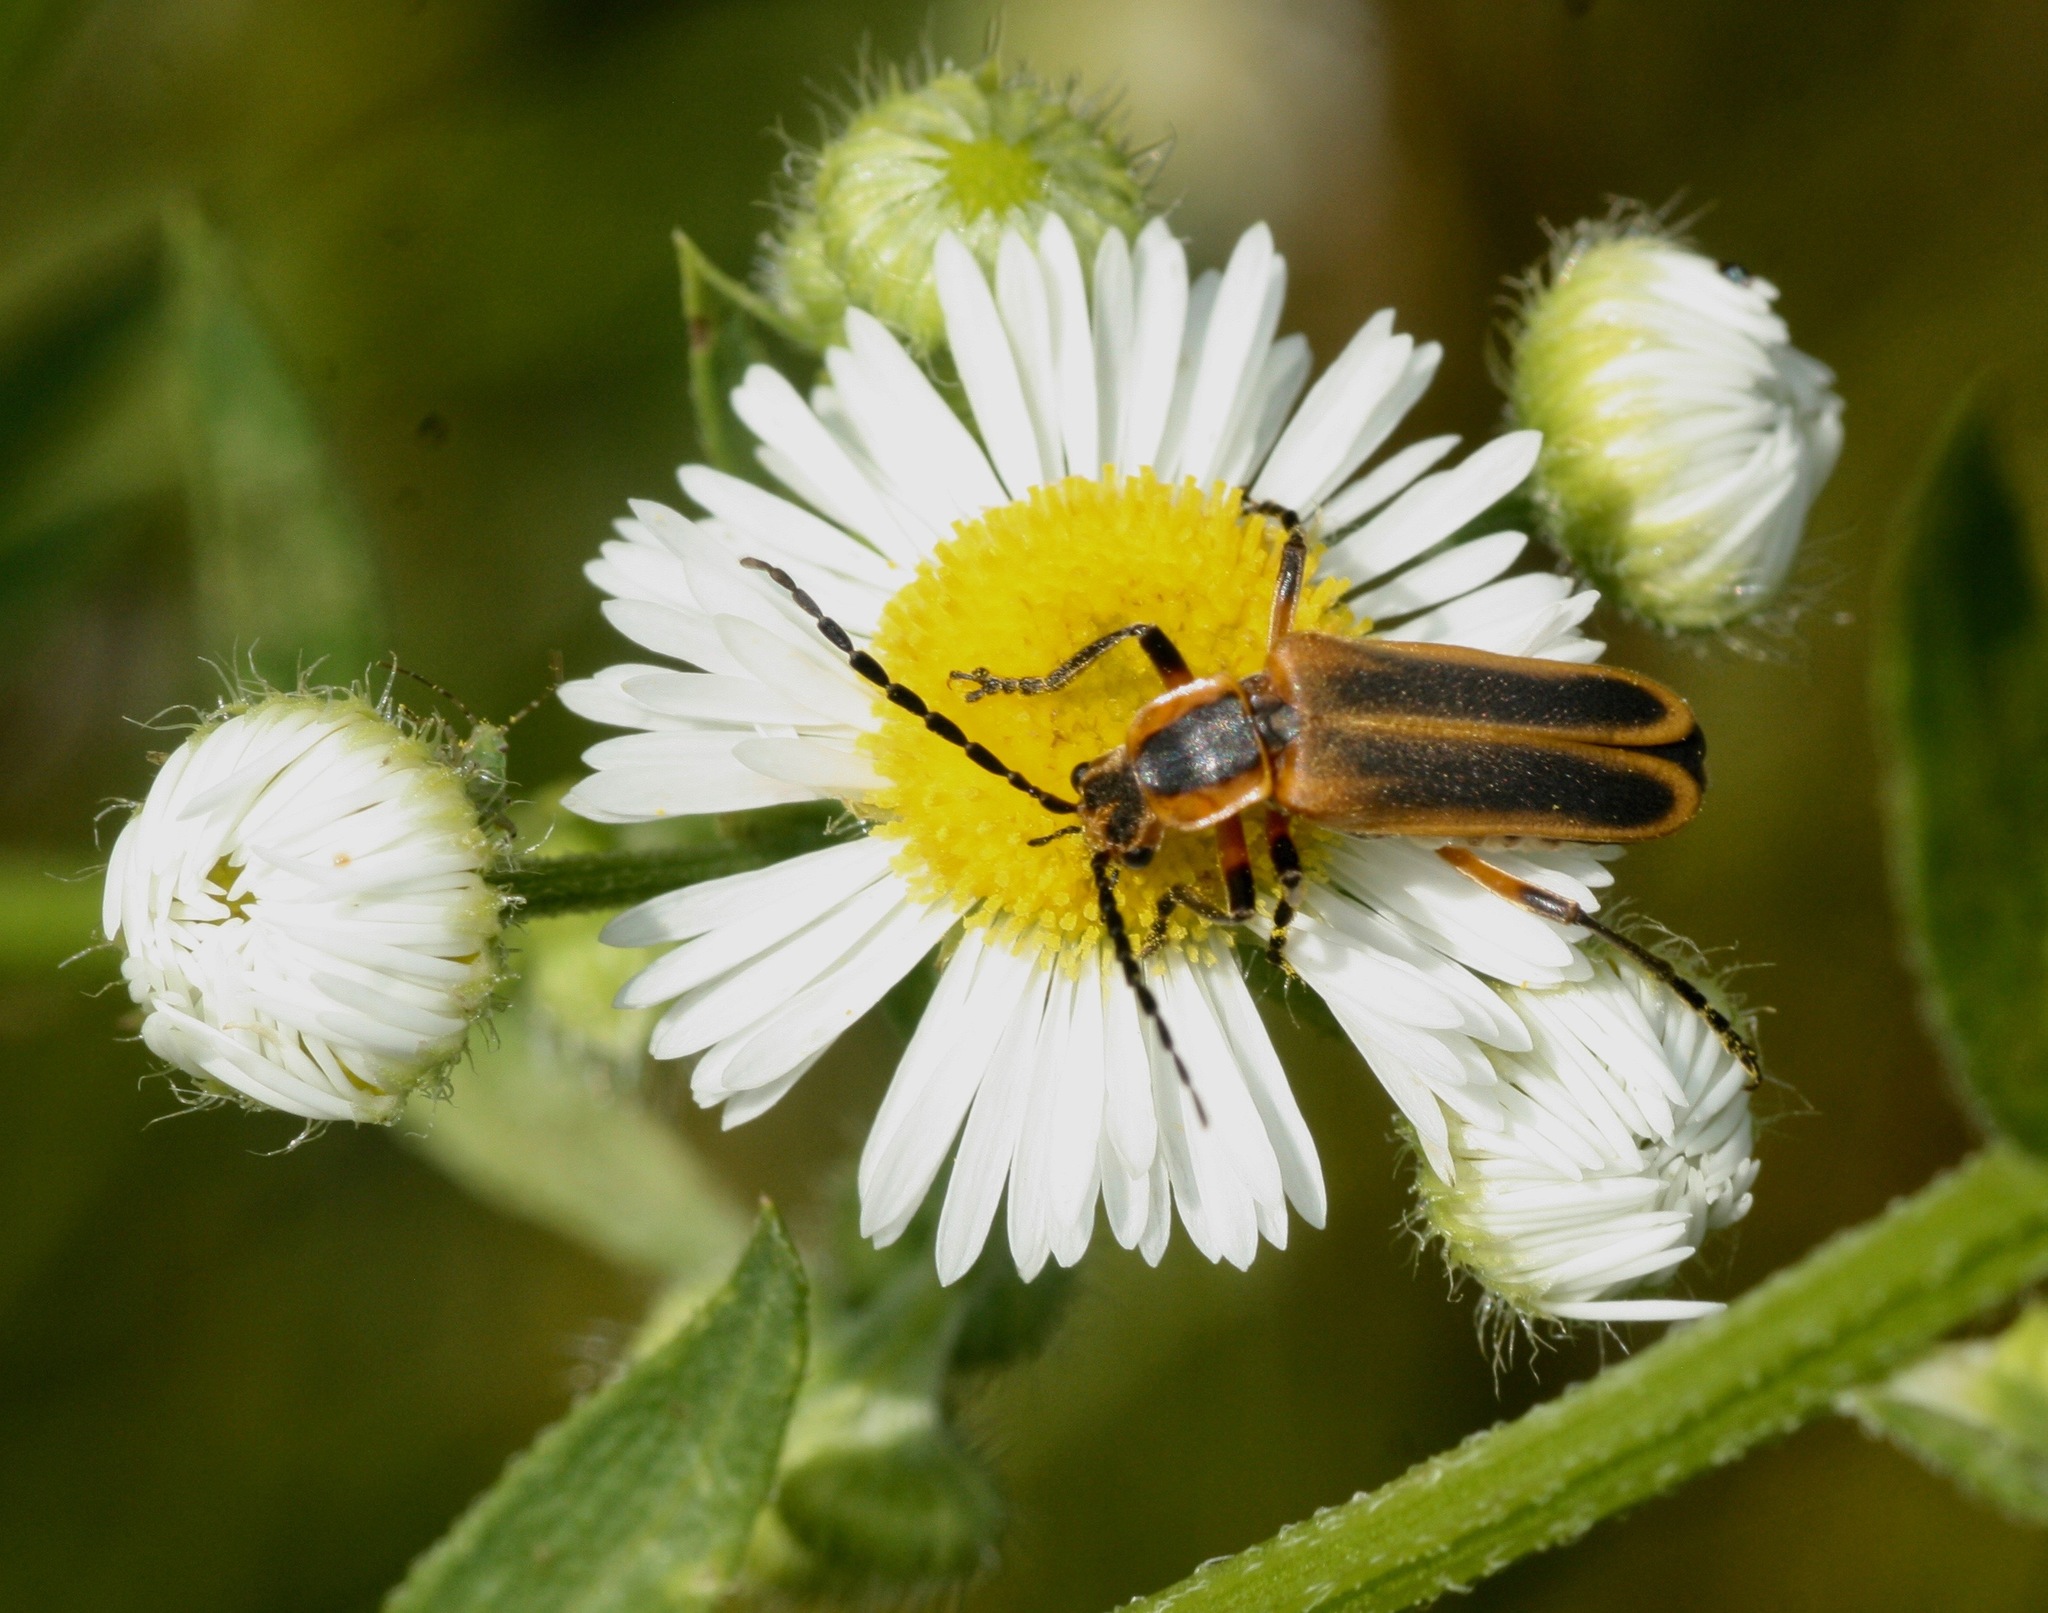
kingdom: Animalia
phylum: Arthropoda
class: Insecta
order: Coleoptera
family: Cantharidae
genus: Chauliognathus
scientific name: Chauliognathus marginatus
